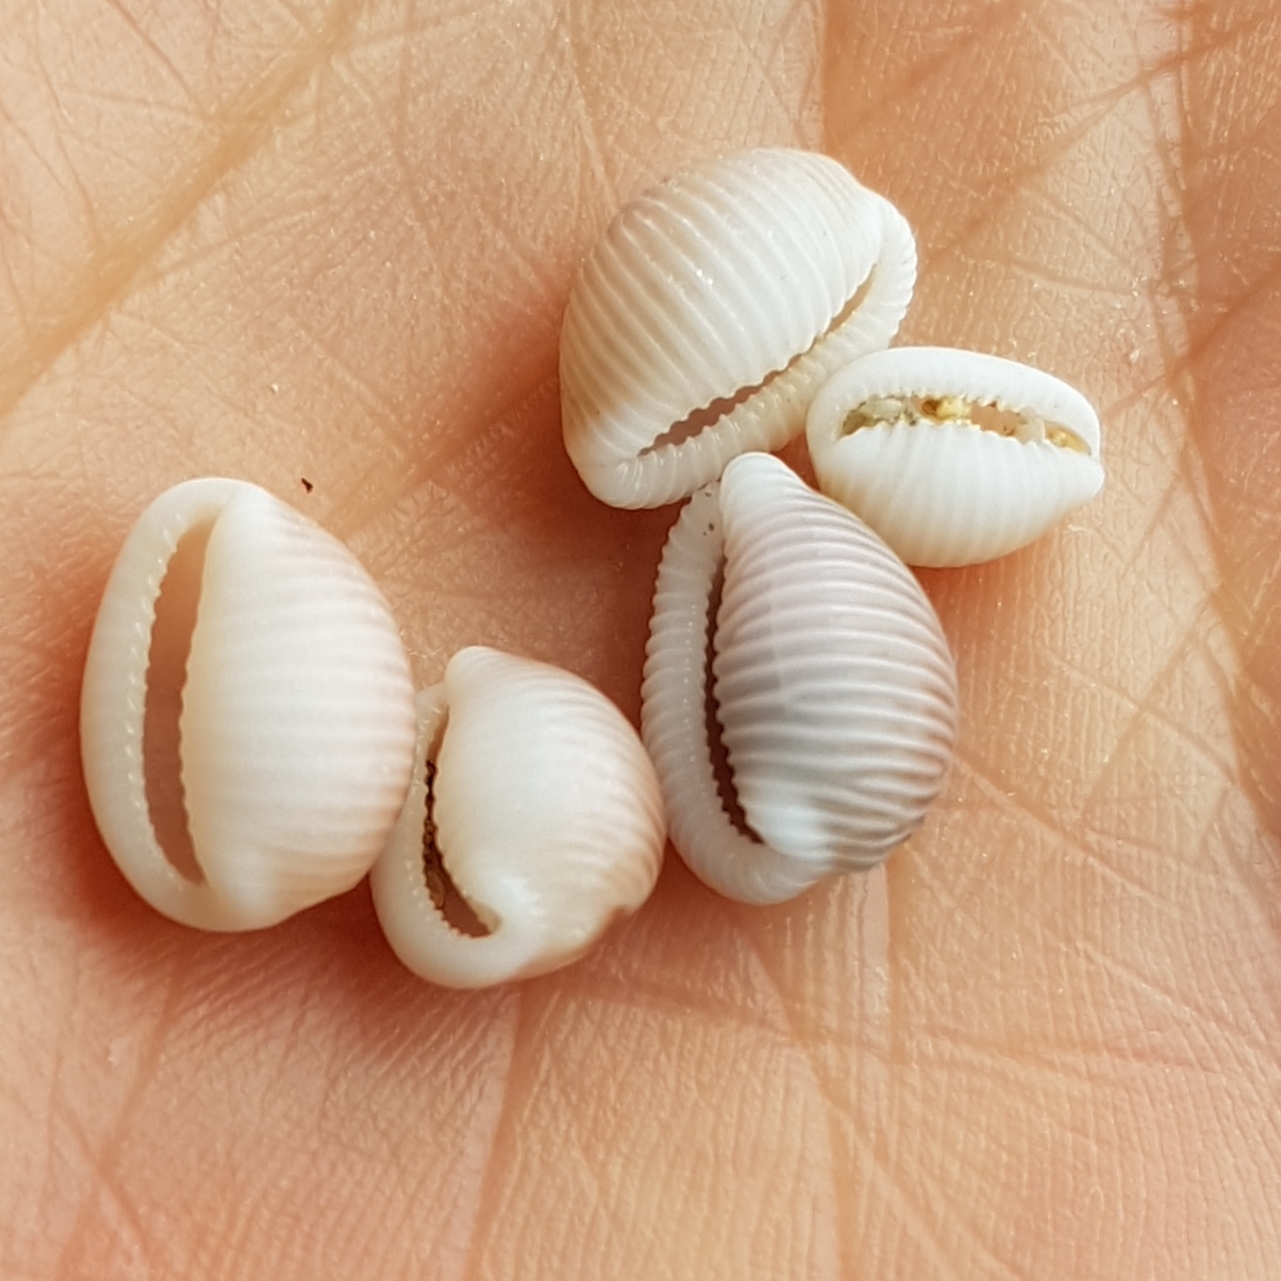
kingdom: Animalia
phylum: Mollusca
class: Gastropoda
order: Littorinimorpha
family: Triviidae
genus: Trivia
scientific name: Trivia monacha
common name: Spotted cowrie
